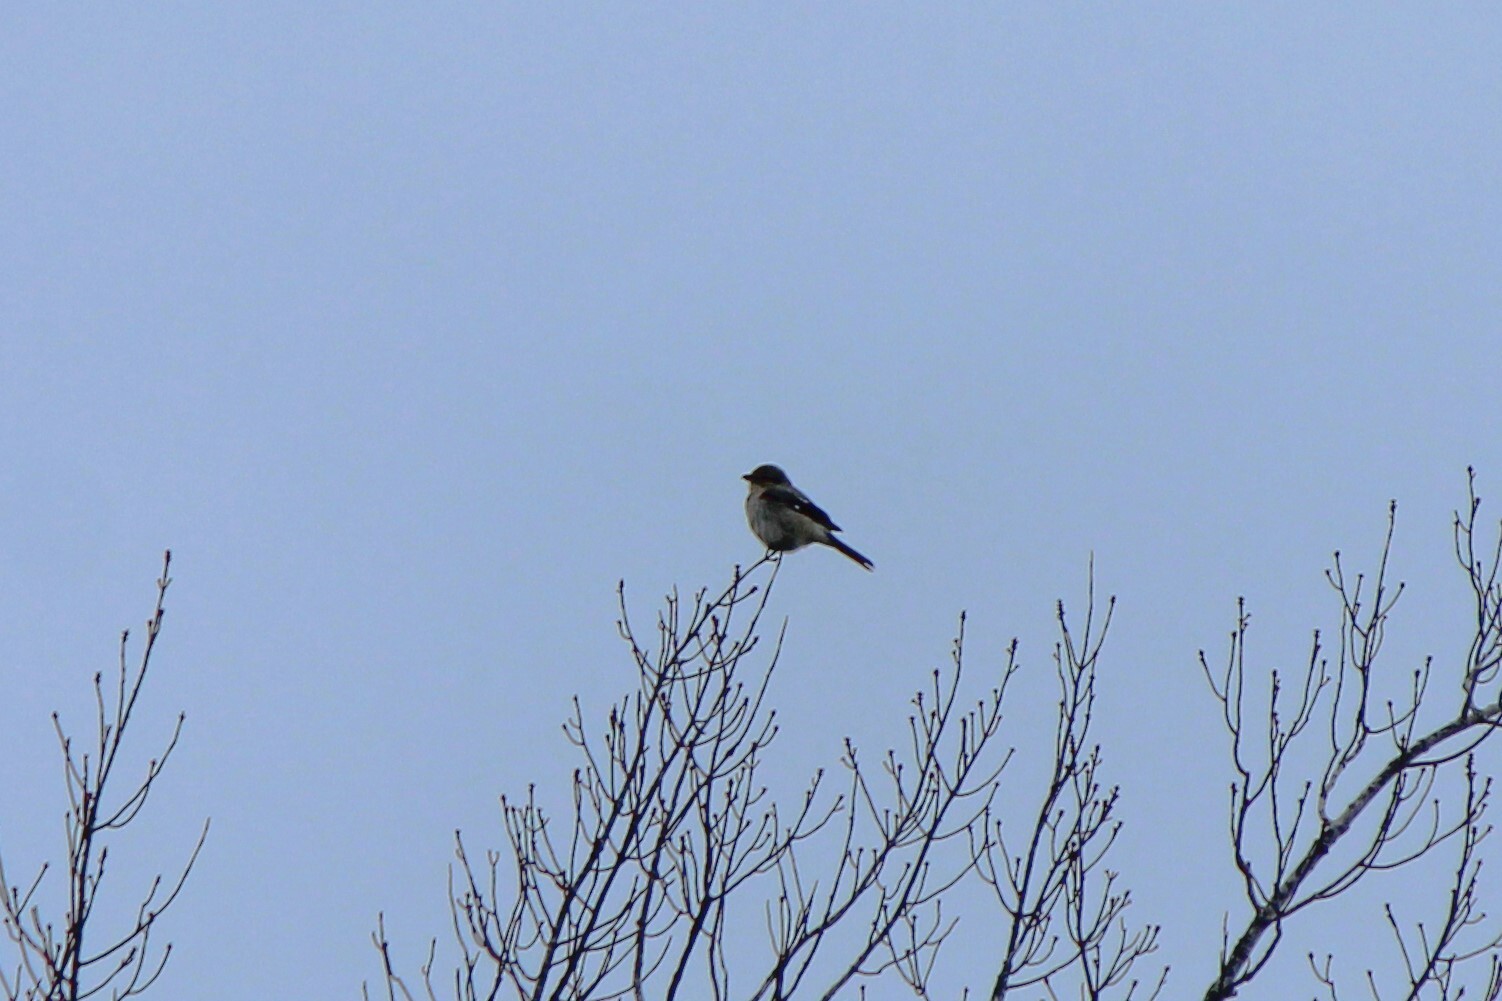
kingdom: Animalia
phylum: Chordata
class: Aves
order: Passeriformes
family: Laniidae
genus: Lanius
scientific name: Lanius borealis
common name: Northern shrike
